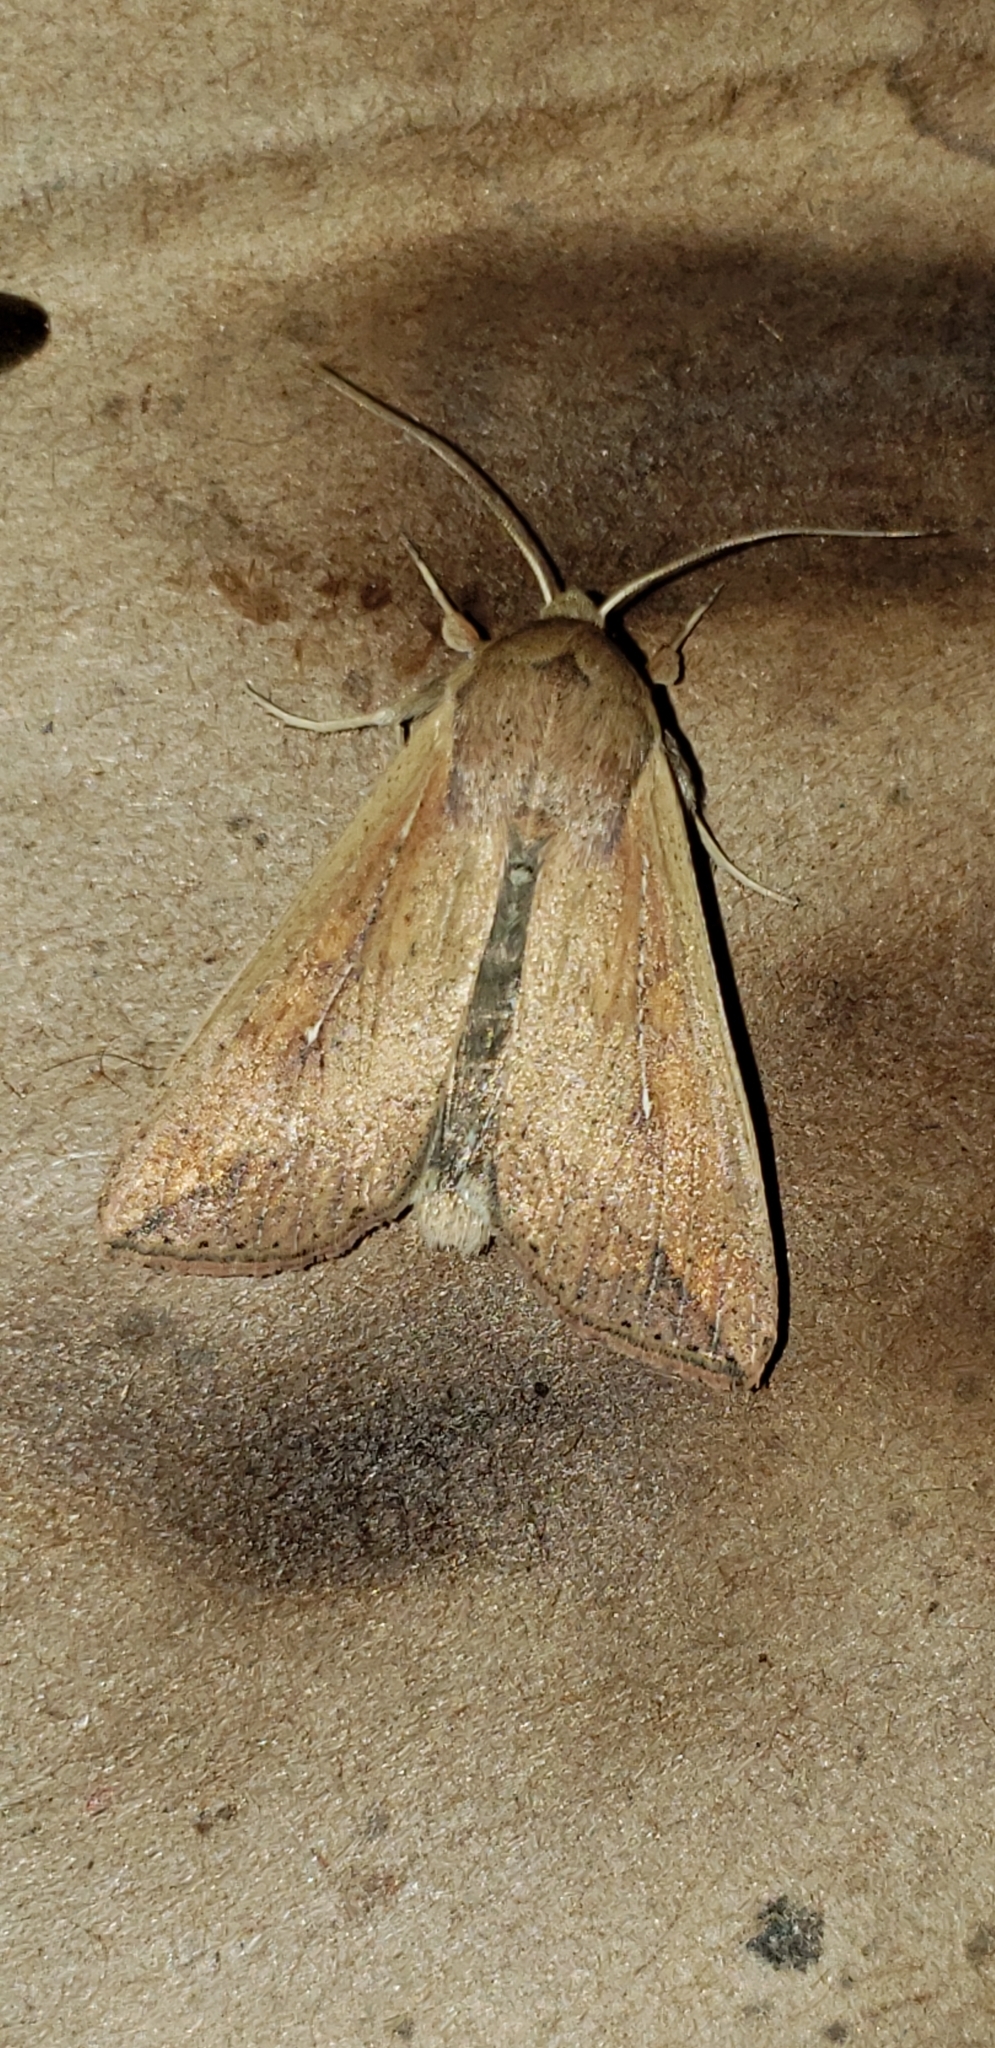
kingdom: Animalia
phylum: Arthropoda
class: Insecta
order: Lepidoptera
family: Noctuidae
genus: Mythimna
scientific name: Mythimna unipuncta
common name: White-speck
